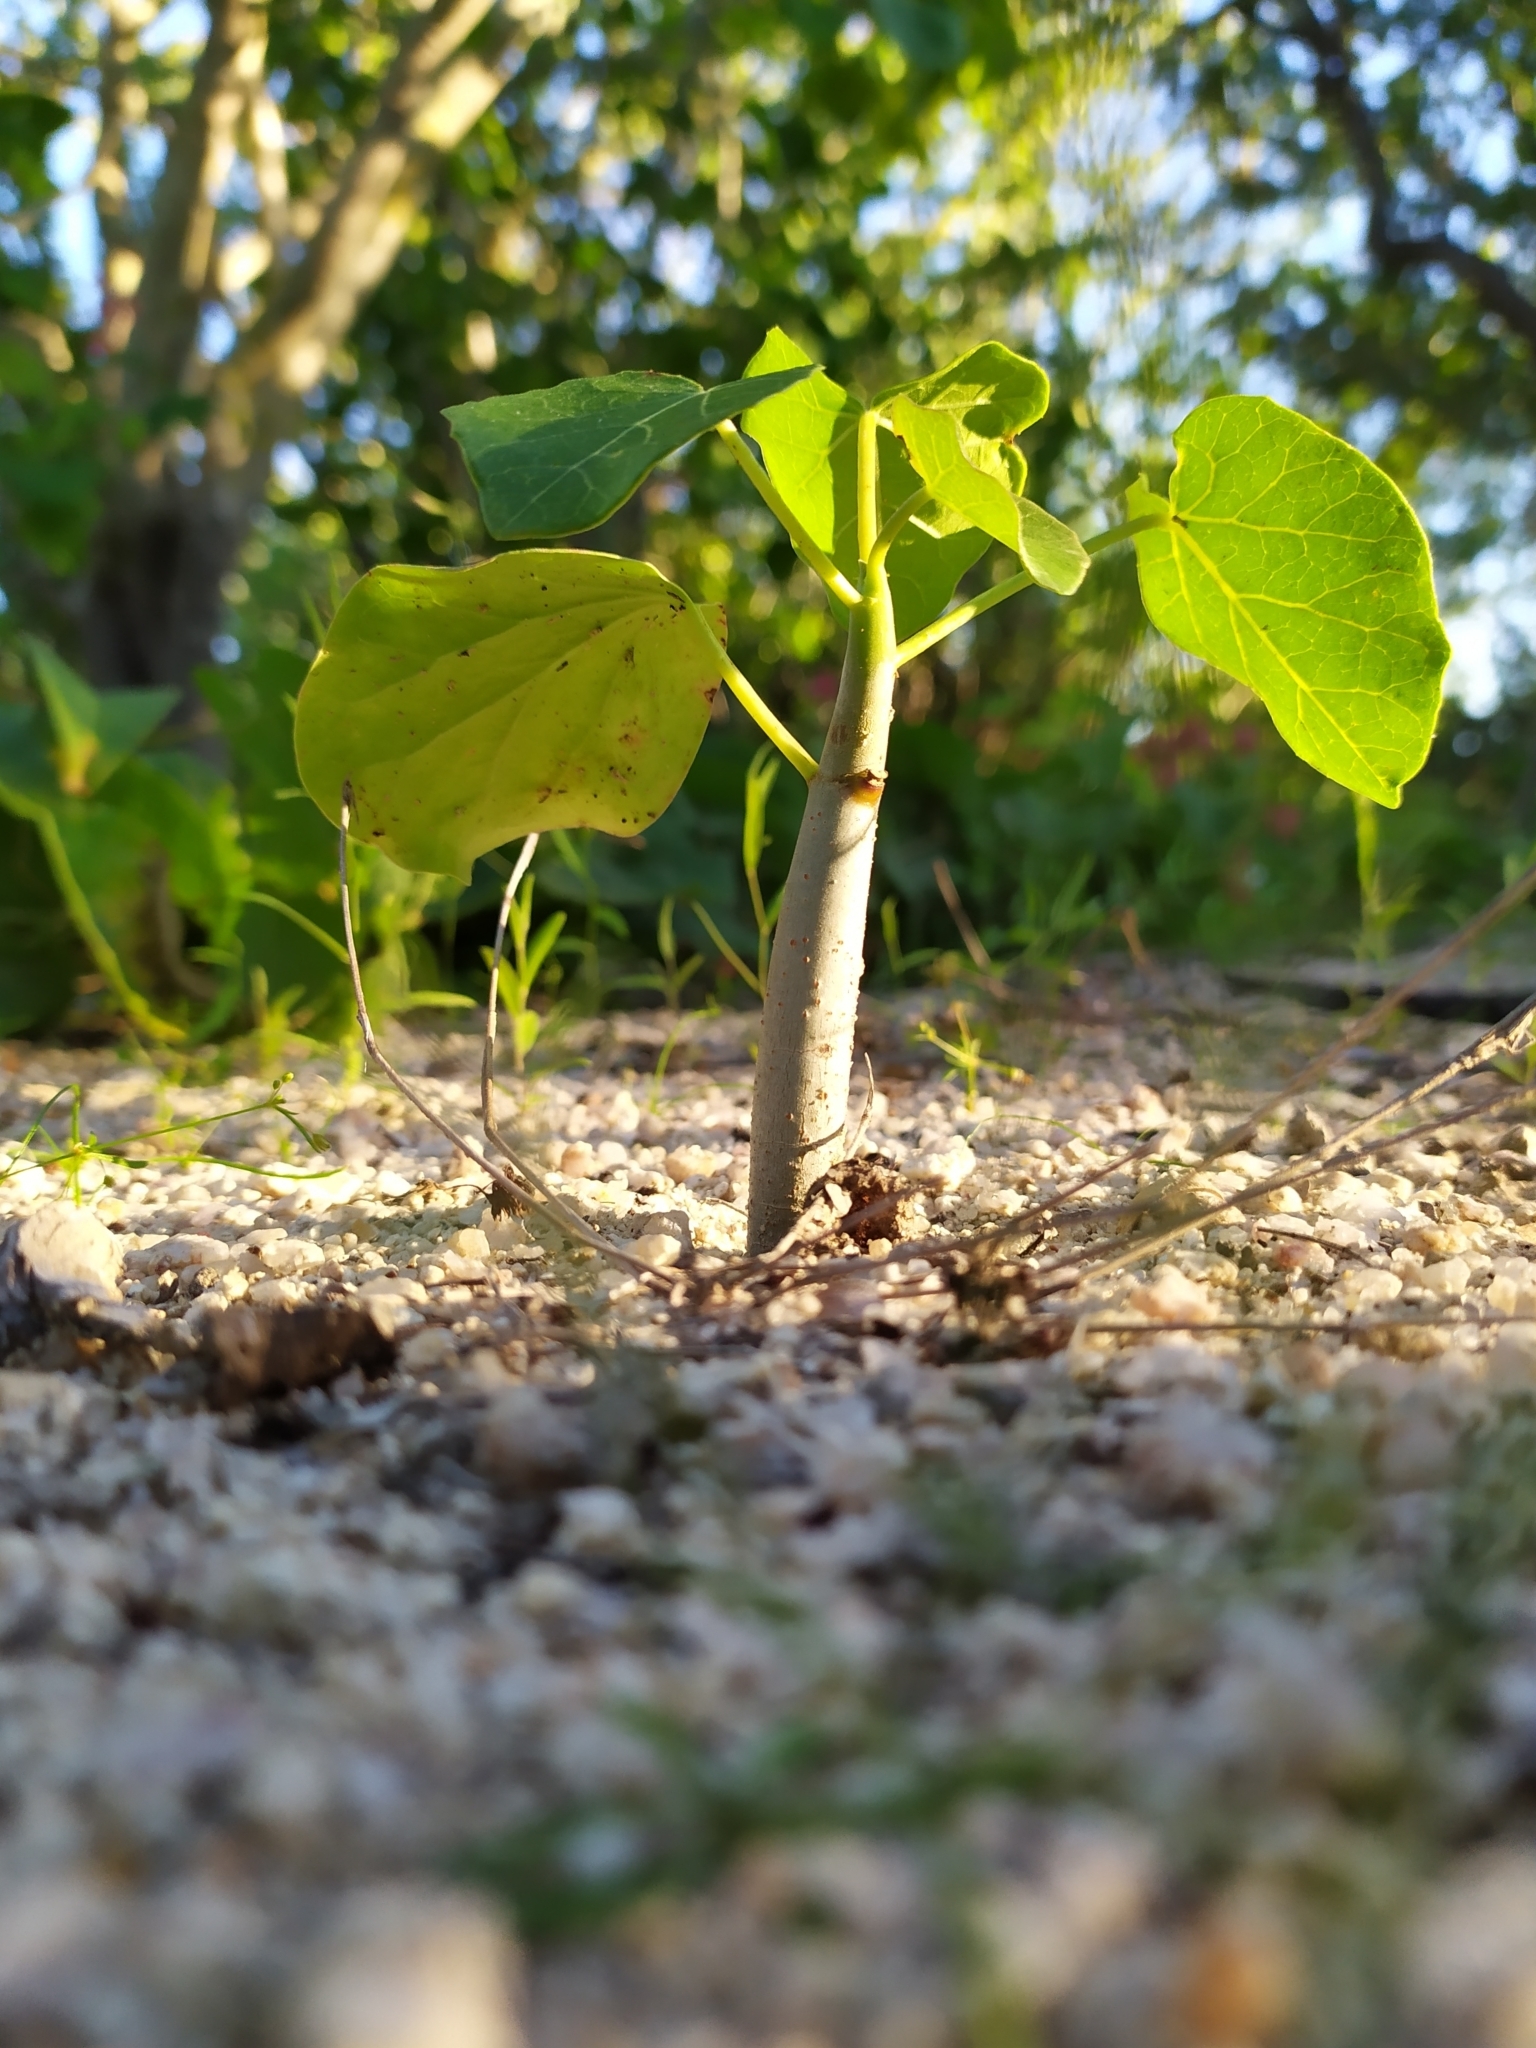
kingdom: Plantae
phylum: Tracheophyta
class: Magnoliopsida
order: Malpighiales
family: Euphorbiaceae
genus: Jatropha
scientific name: Jatropha cinerea
